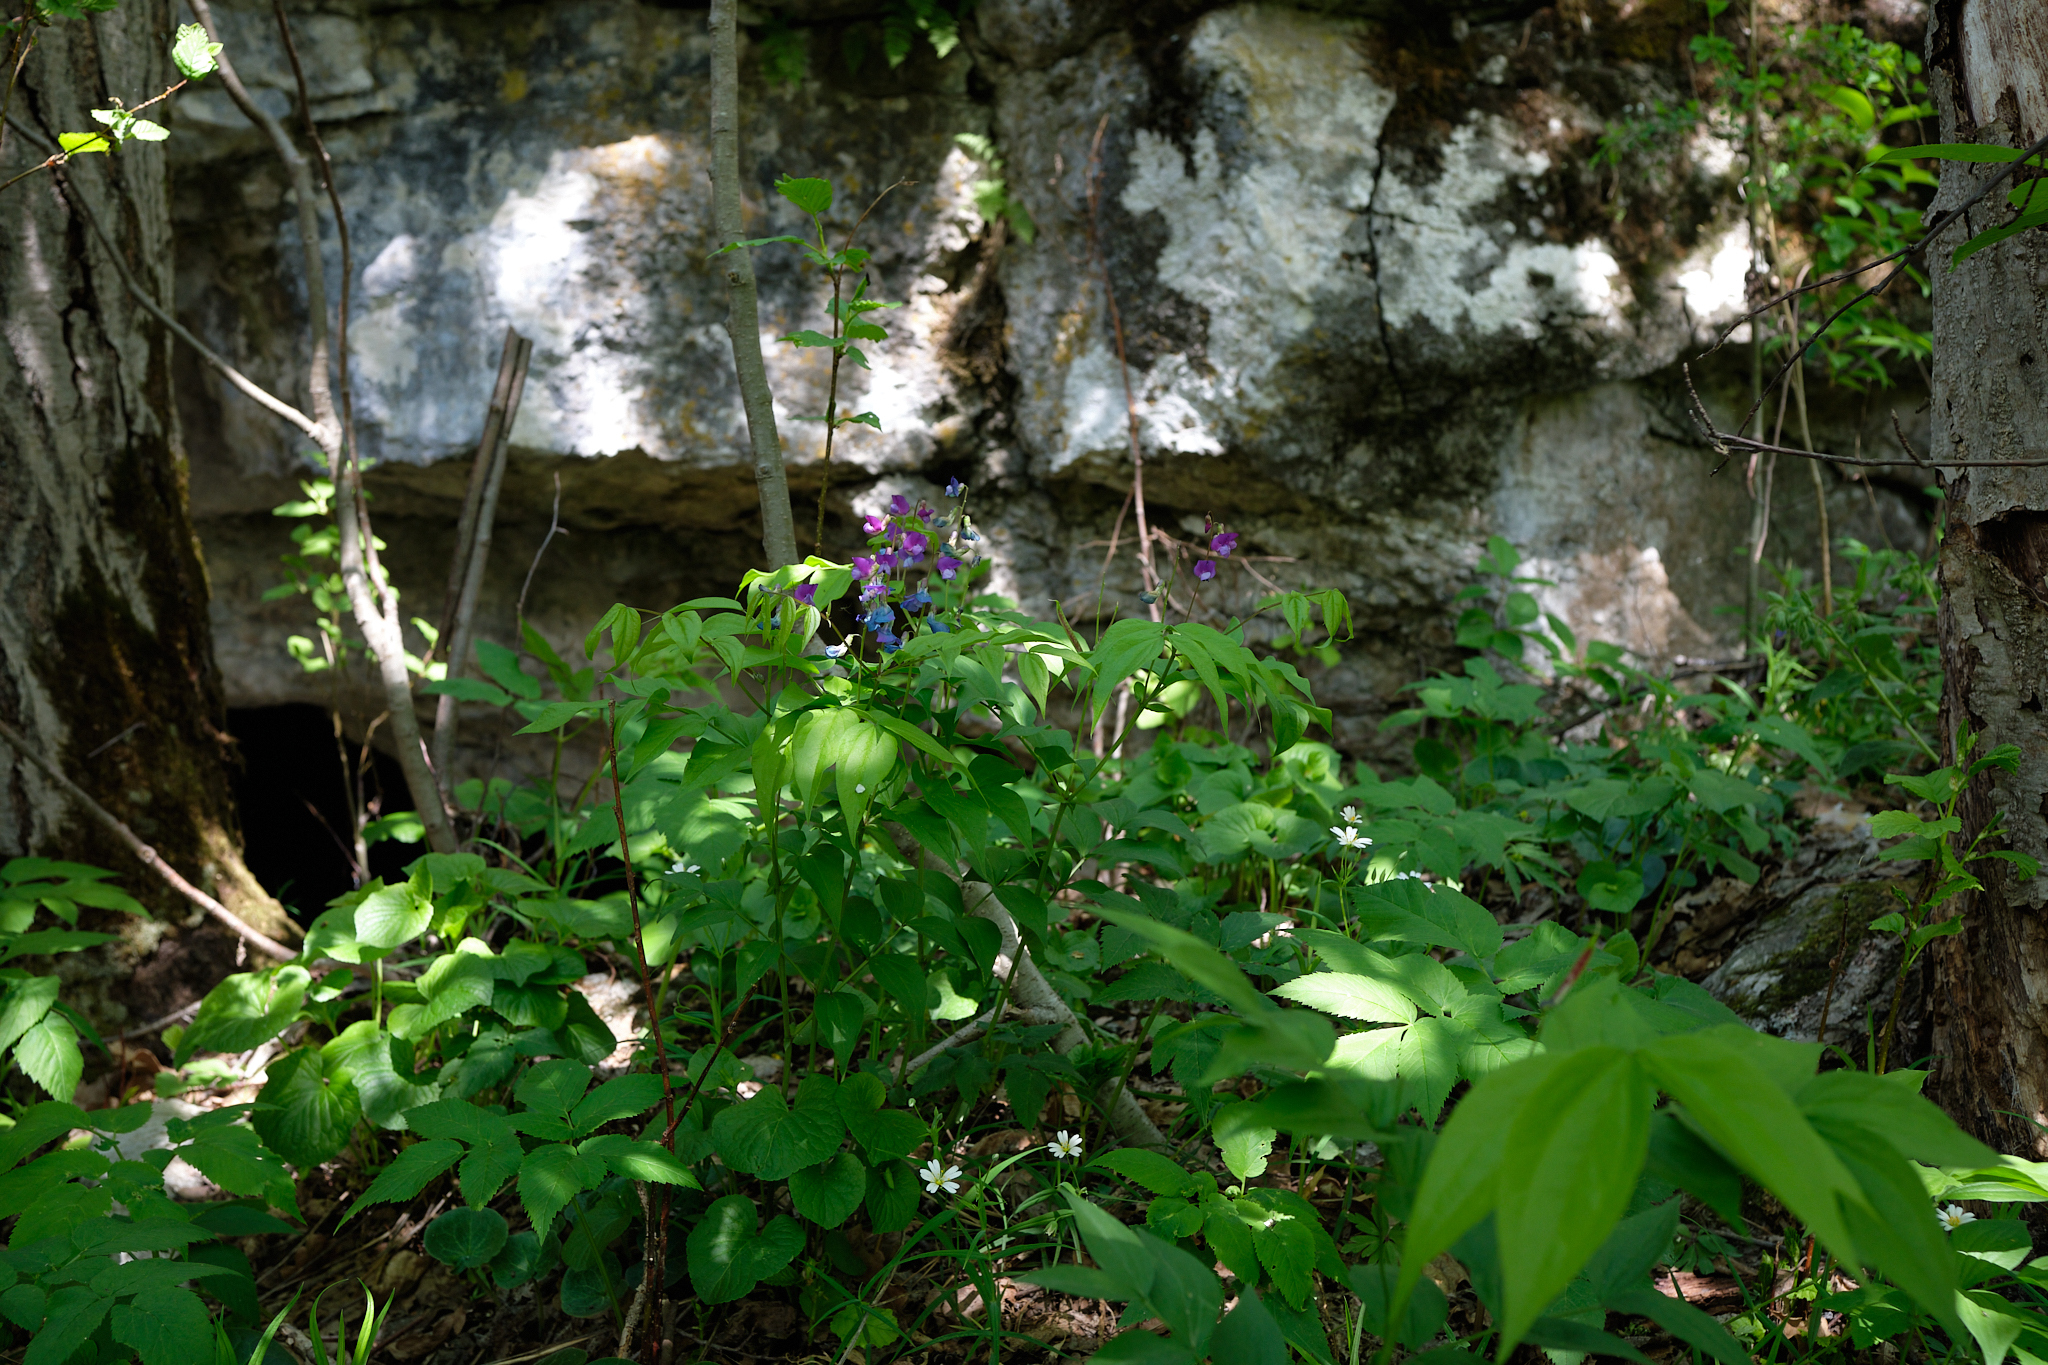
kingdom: Plantae
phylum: Tracheophyta
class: Magnoliopsida
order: Fabales
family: Fabaceae
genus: Lathyrus
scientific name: Lathyrus vernus
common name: Spring pea
